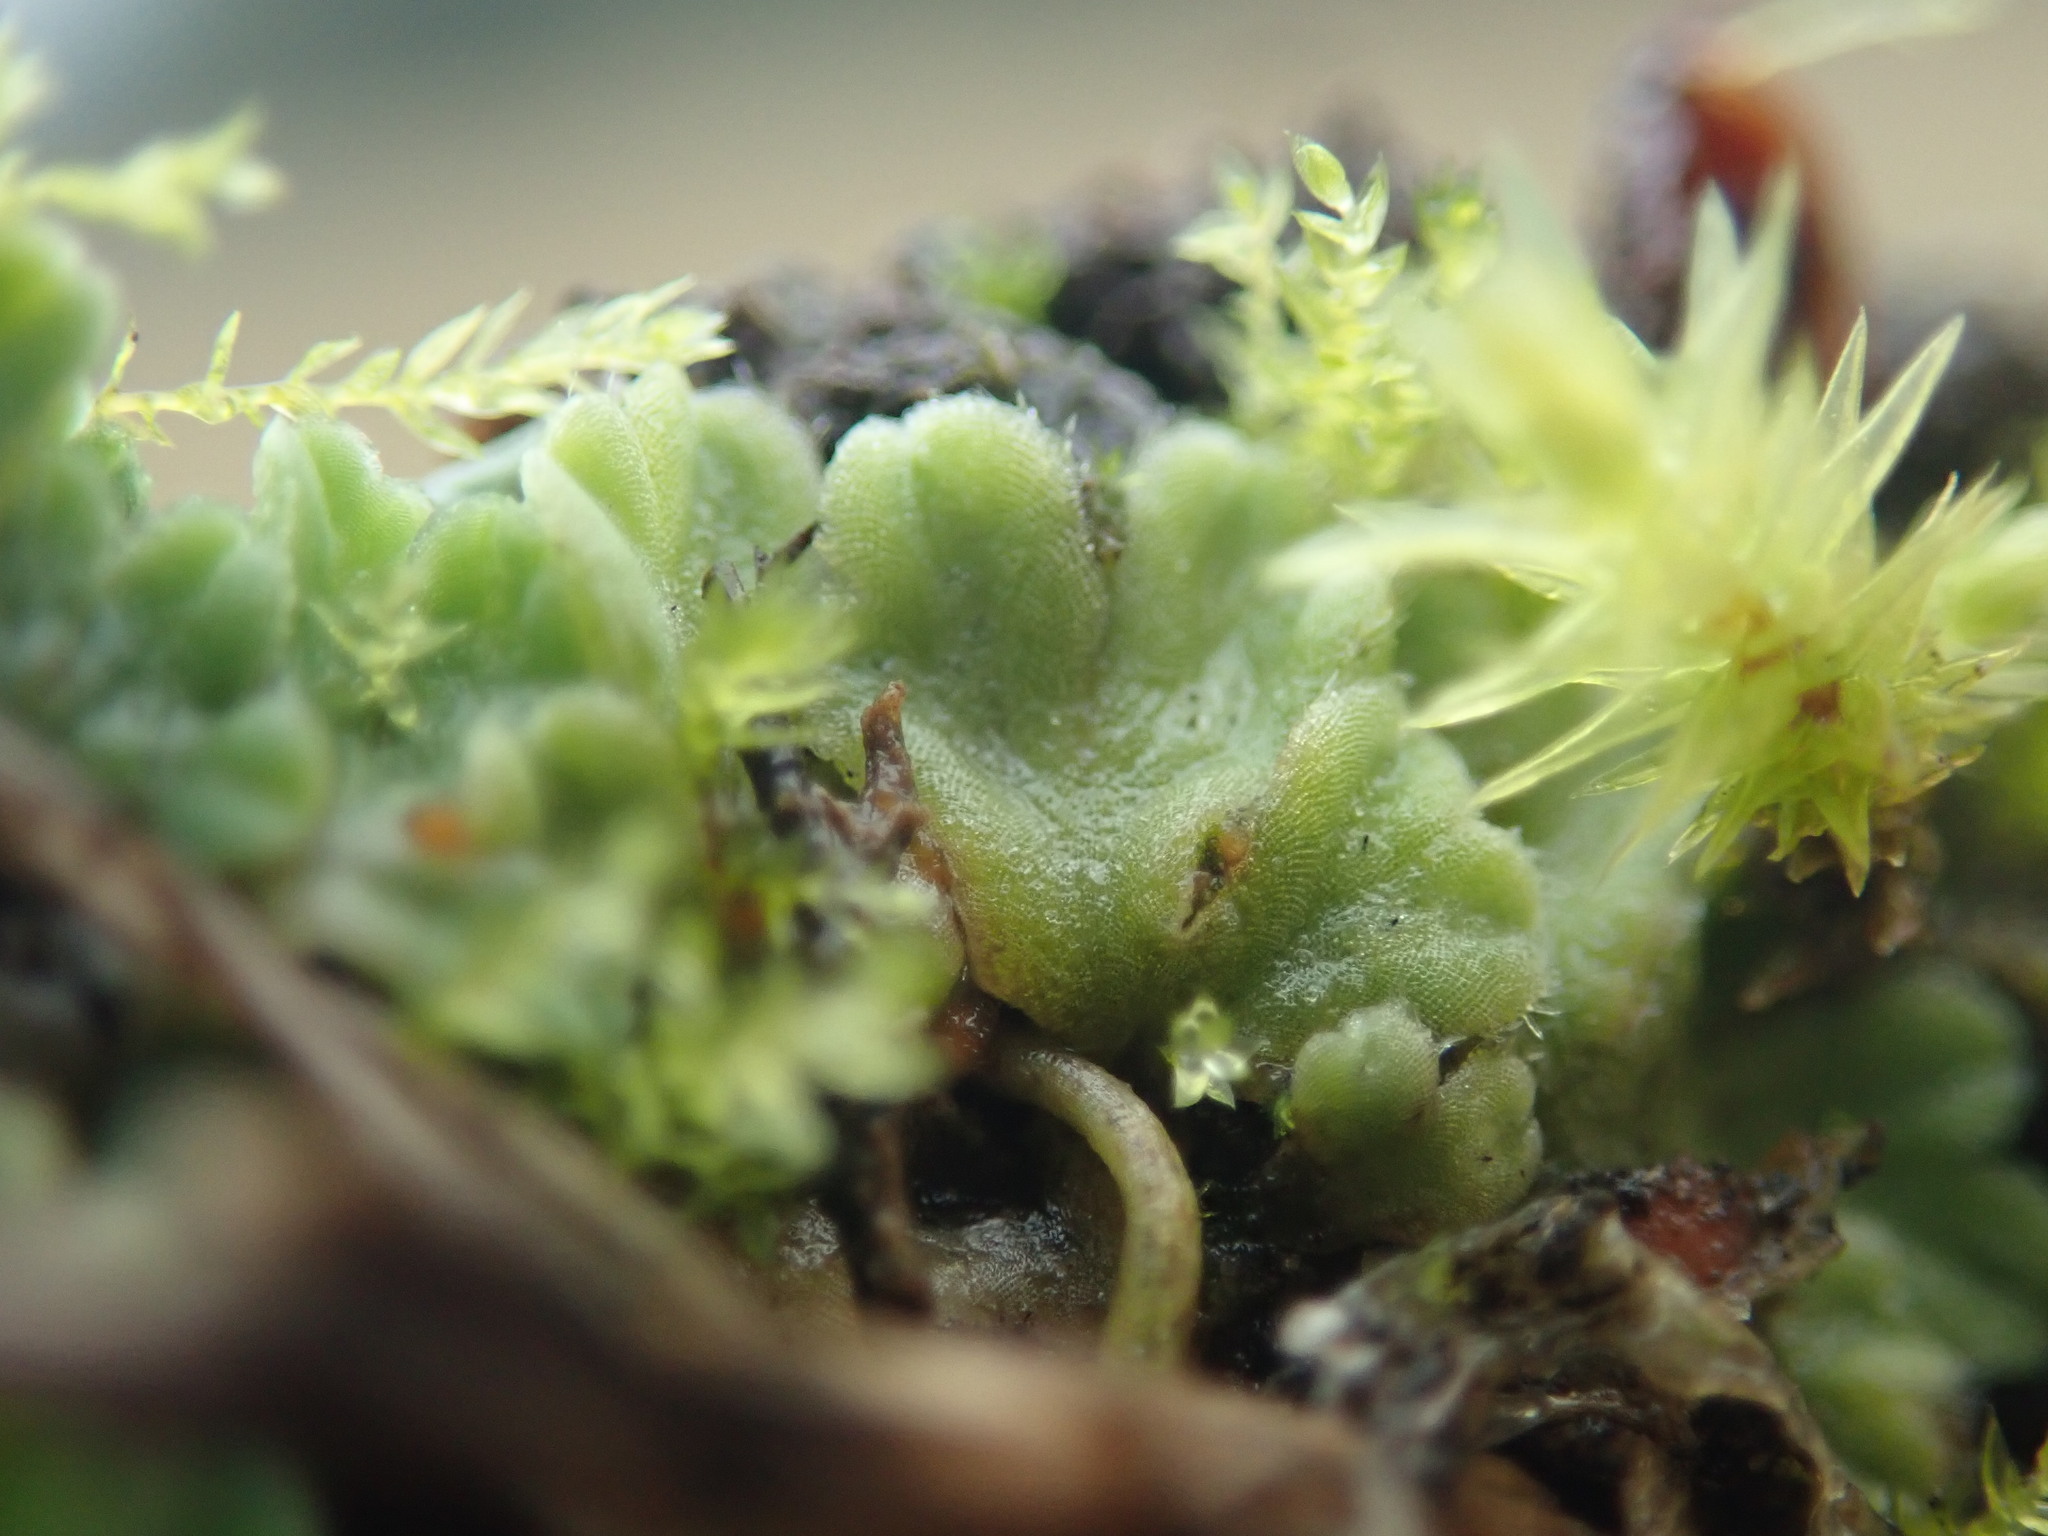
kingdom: Plantae
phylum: Marchantiophyta
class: Marchantiopsida
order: Marchantiales
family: Ricciaceae
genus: Riccia
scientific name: Riccia beyrichiana
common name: Purple crystalwort
